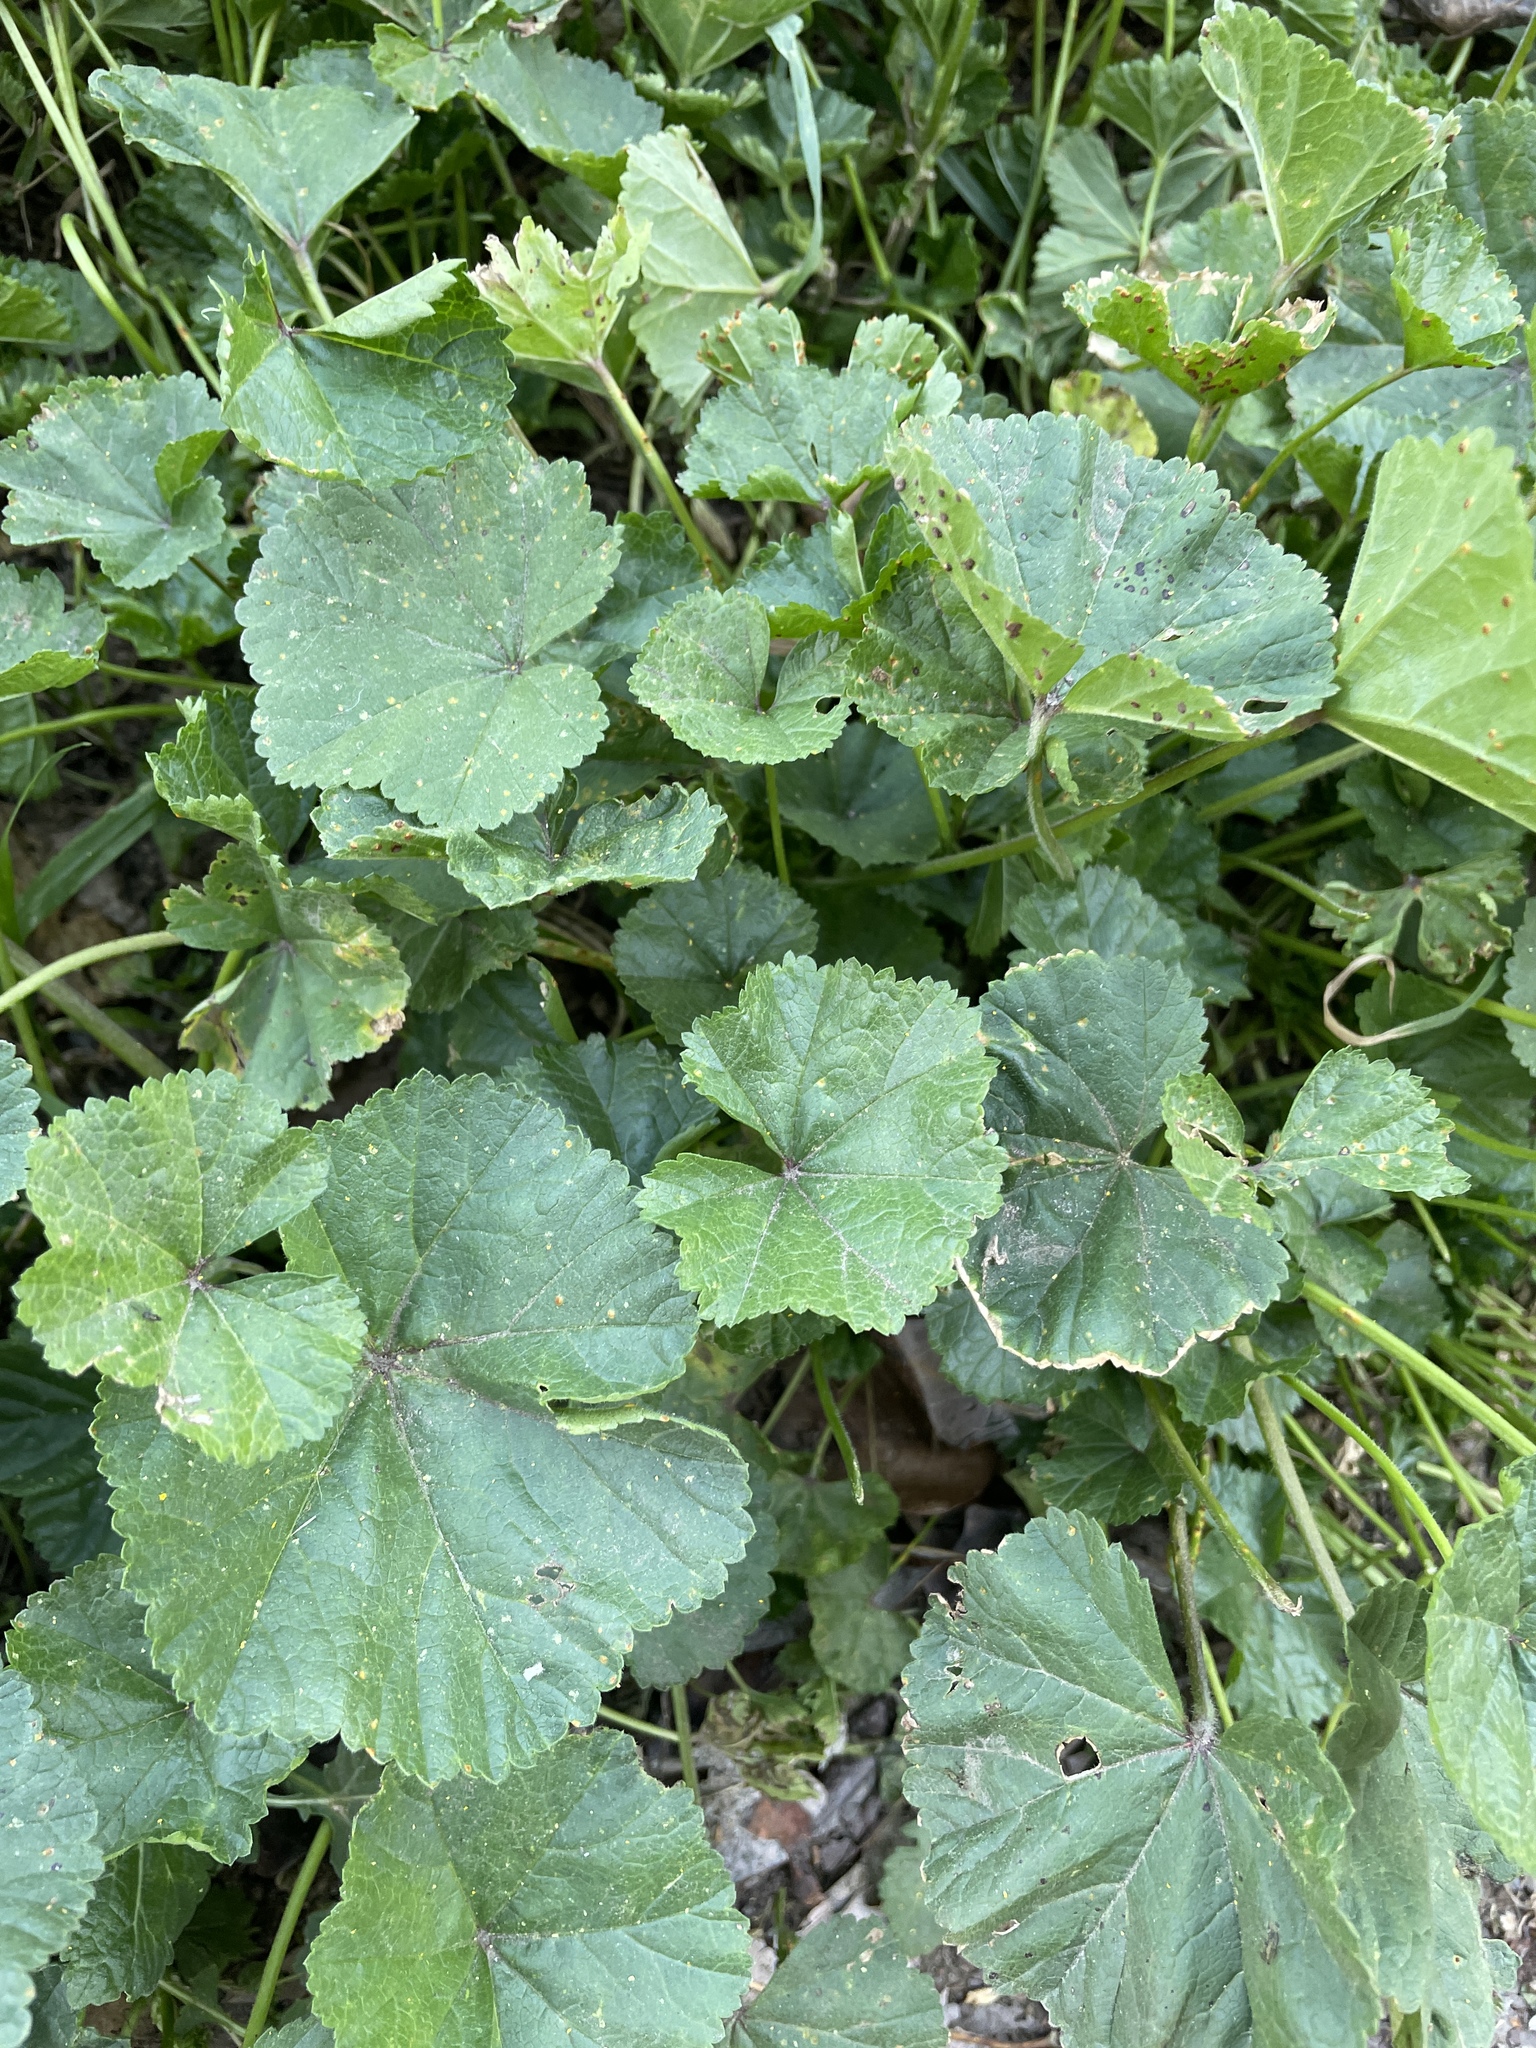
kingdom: Plantae
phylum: Tracheophyta
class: Magnoliopsida
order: Malvales
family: Malvaceae
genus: Malva
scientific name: Malva
